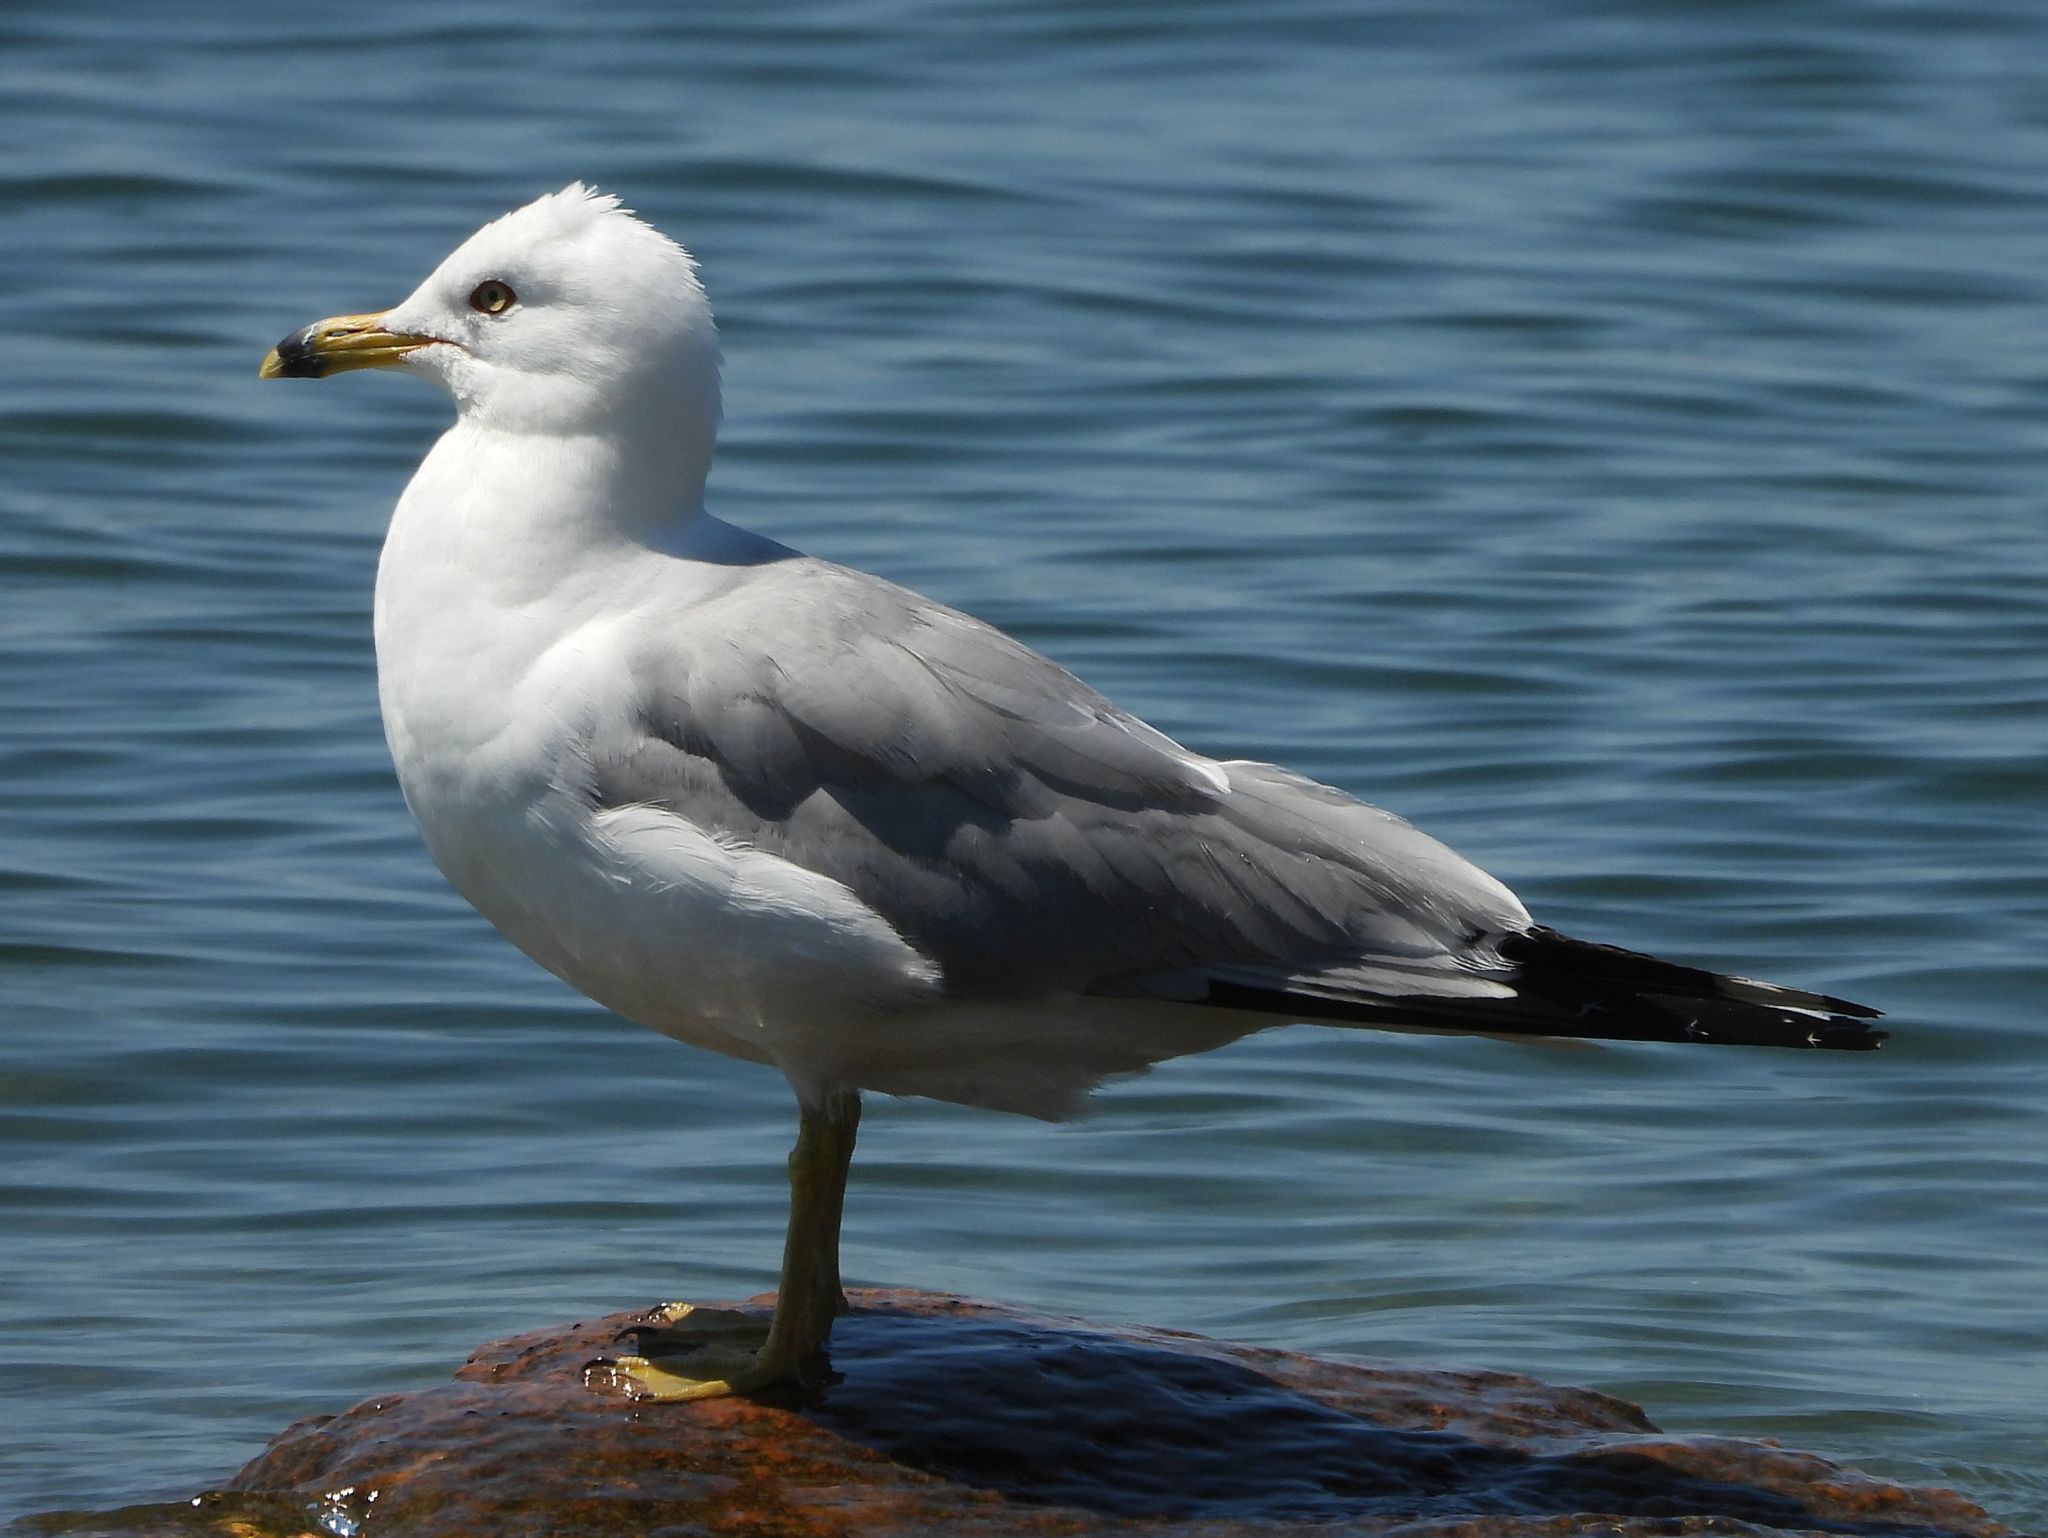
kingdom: Animalia
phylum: Chordata
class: Aves
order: Charadriiformes
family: Laridae
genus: Larus
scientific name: Larus delawarensis
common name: Ring-billed gull
